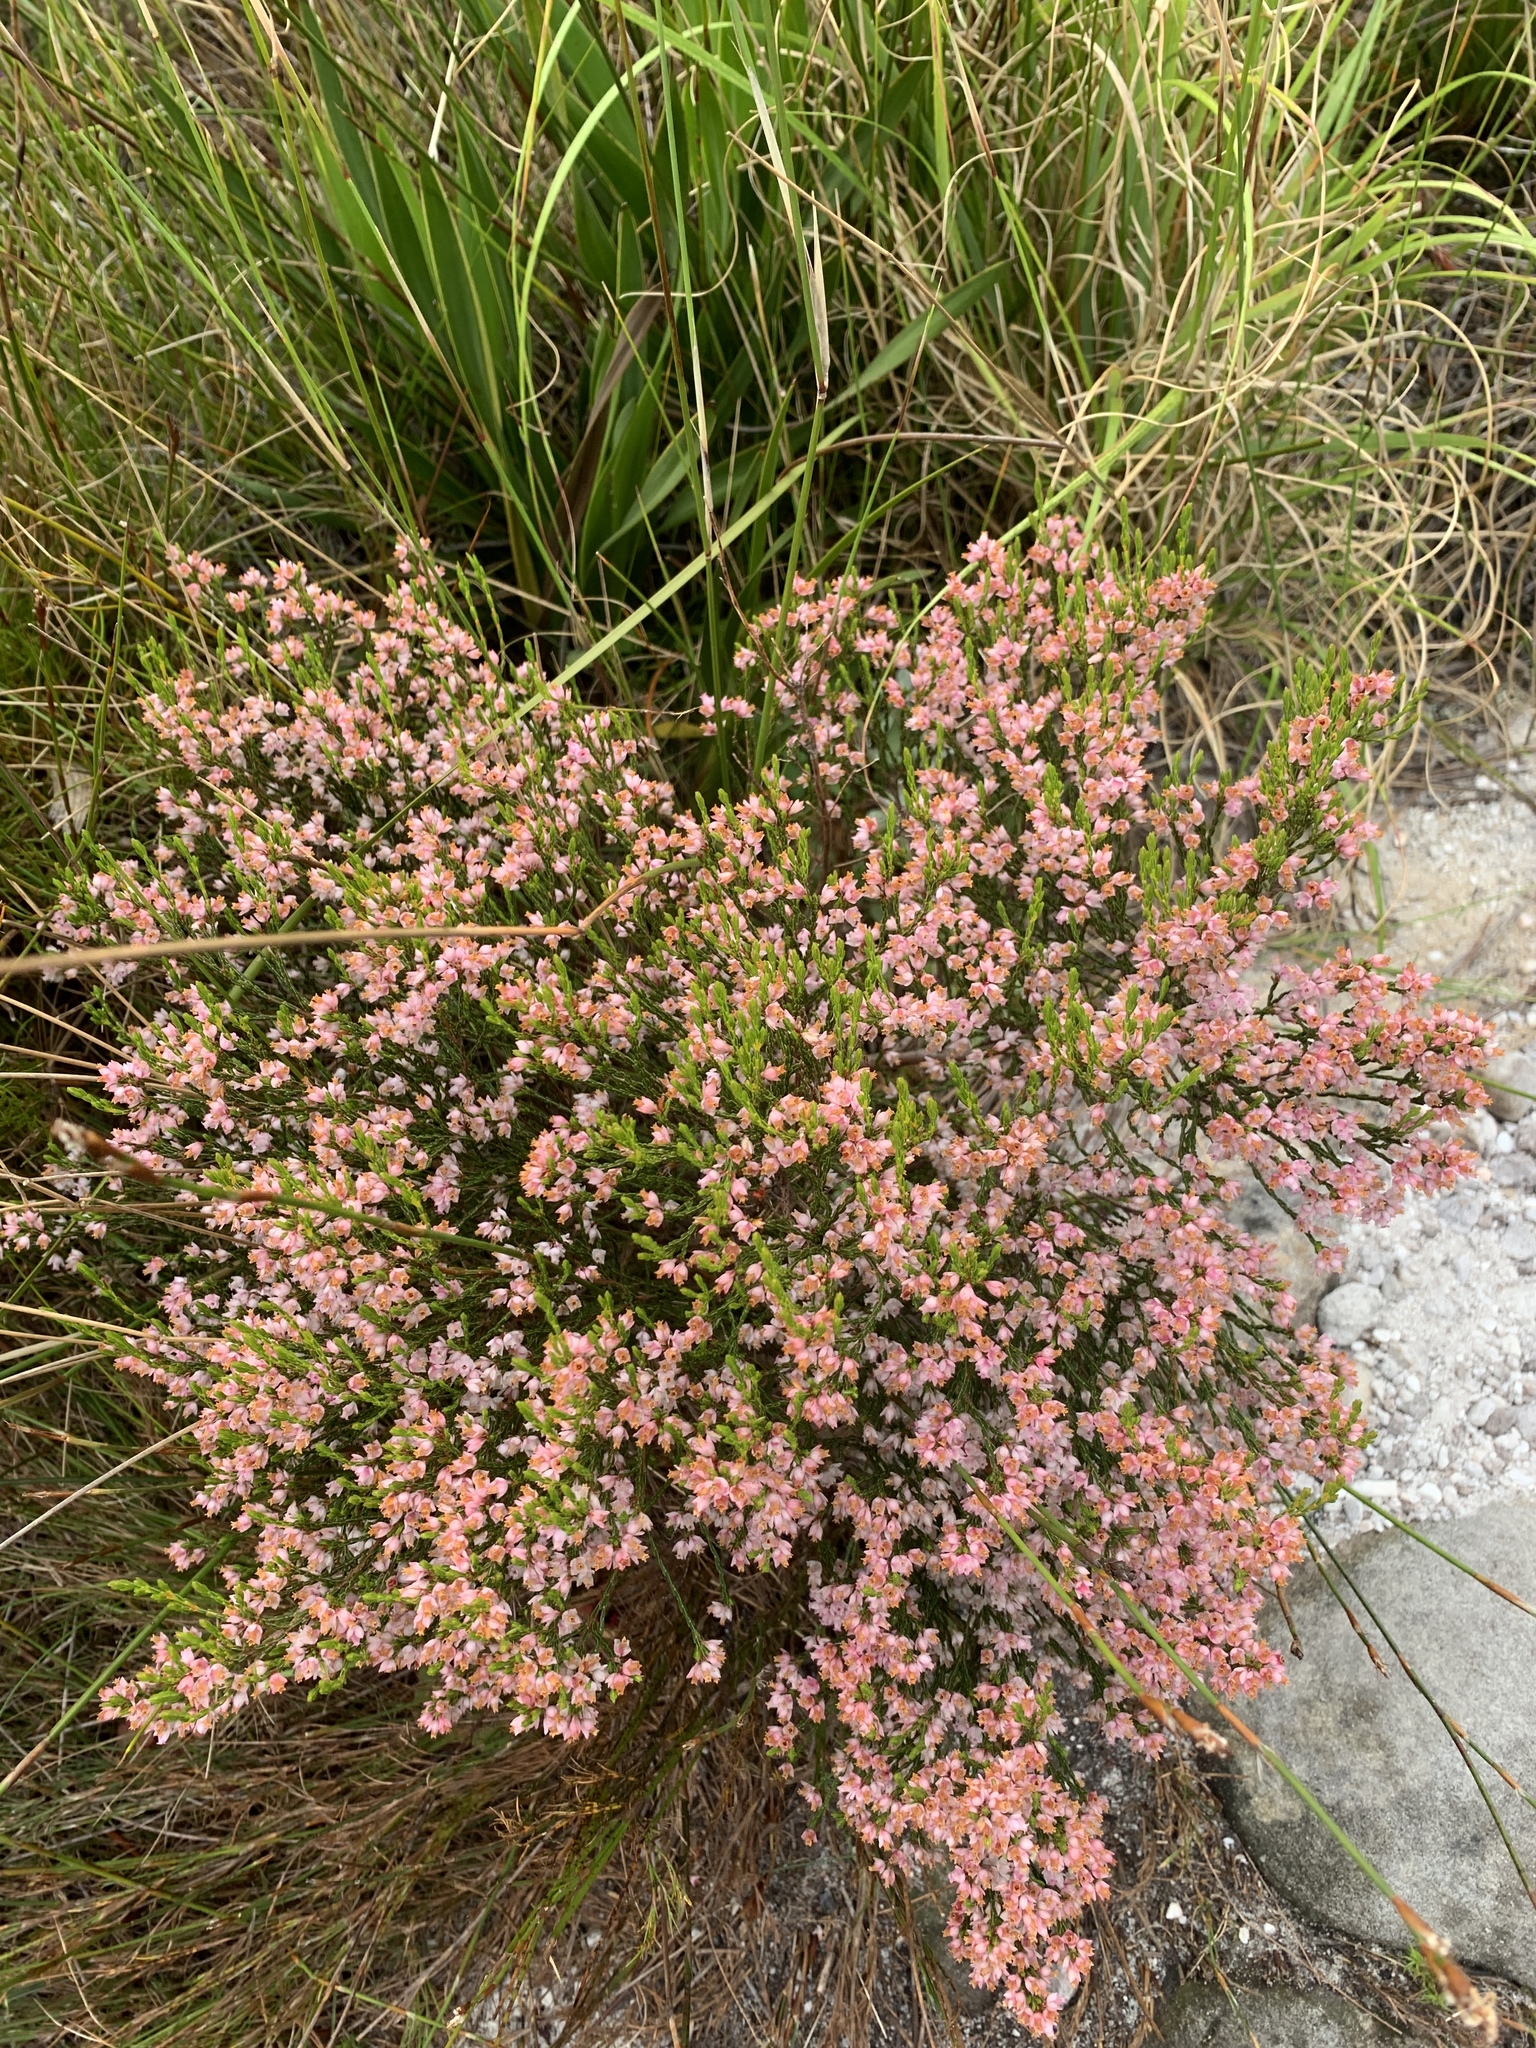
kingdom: Plantae
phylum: Tracheophyta
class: Magnoliopsida
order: Ericales
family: Ericaceae
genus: Erica
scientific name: Erica tenuifolia
